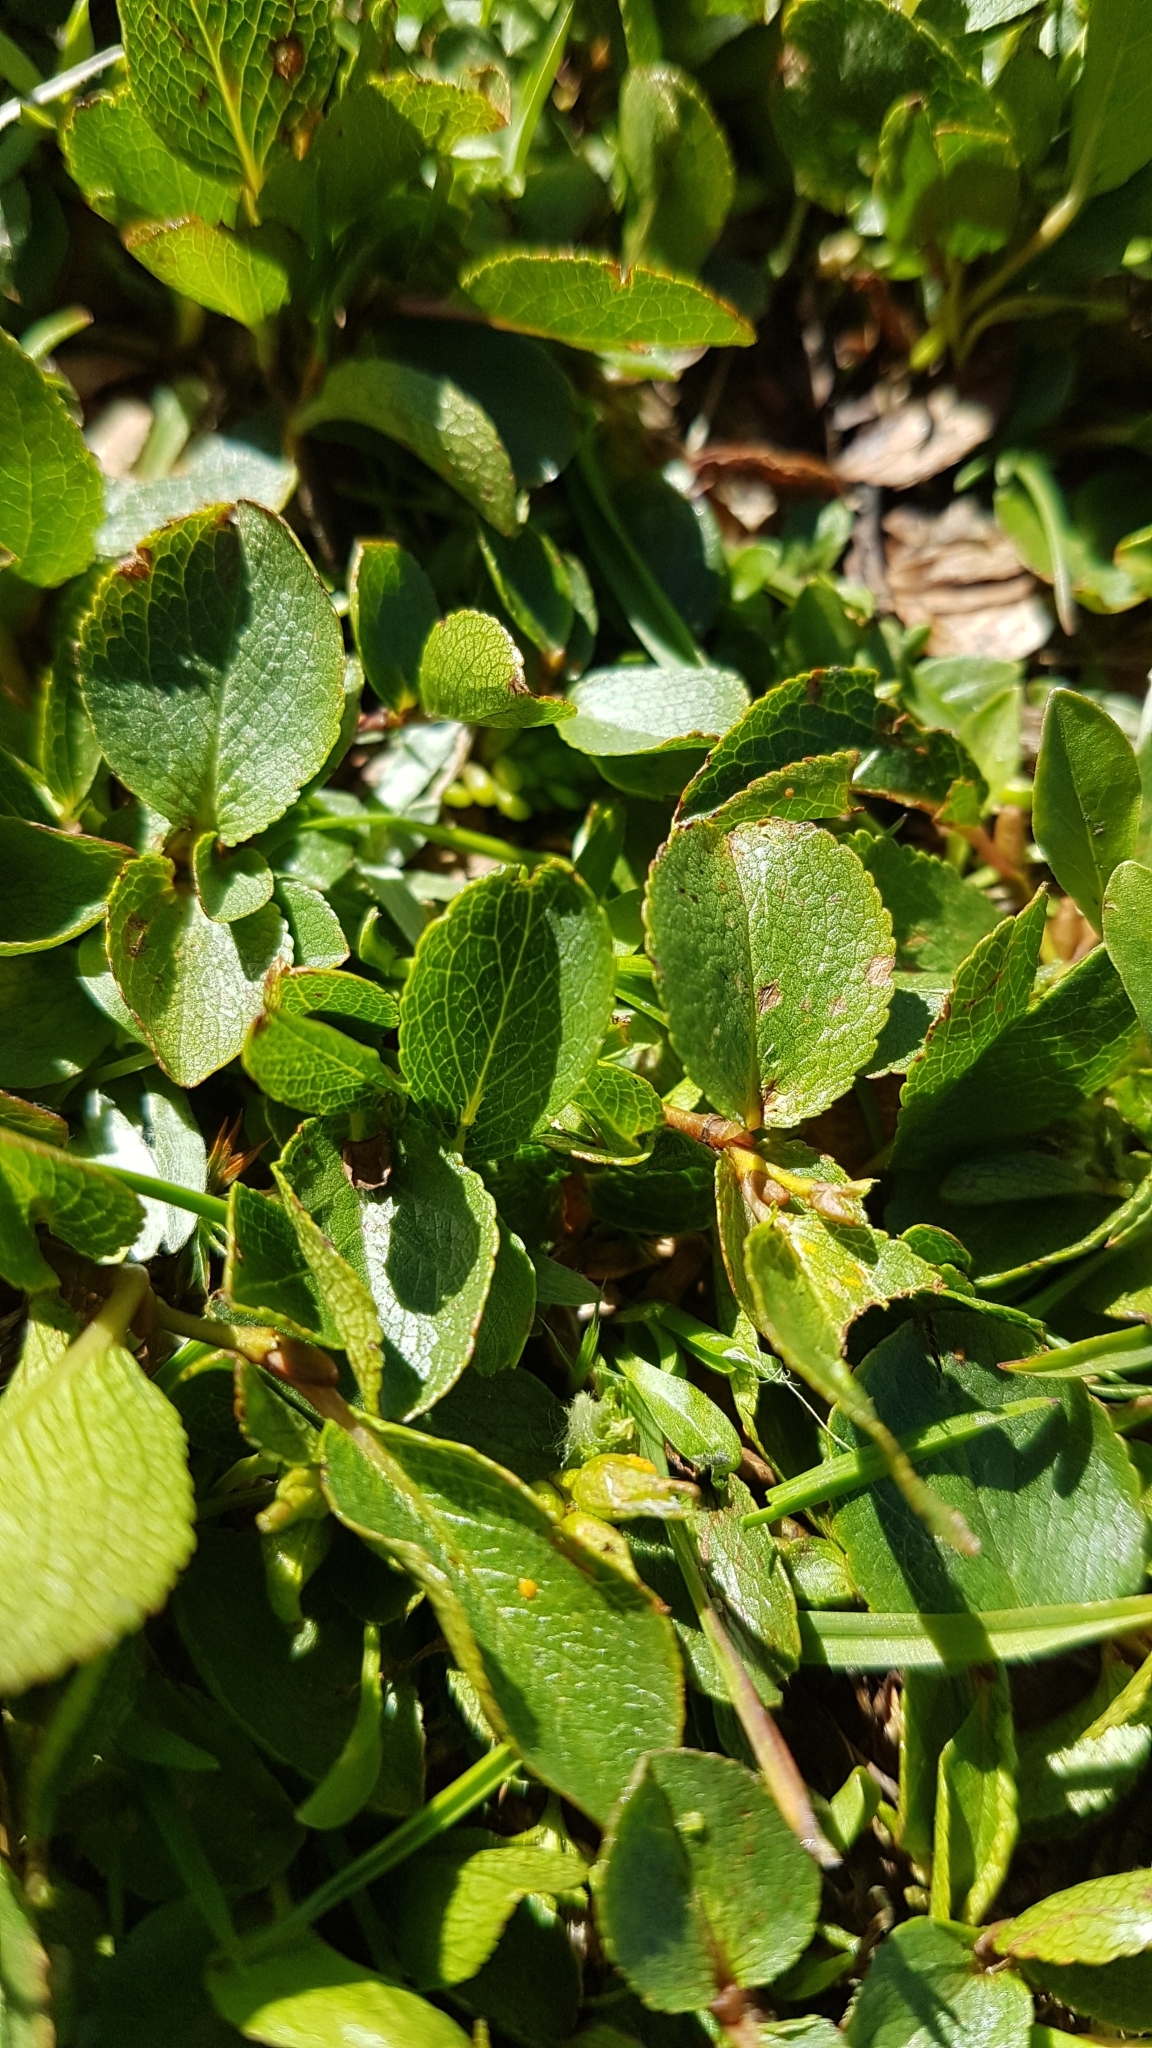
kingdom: Plantae
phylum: Tracheophyta
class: Magnoliopsida
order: Malpighiales
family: Salicaceae
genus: Salix
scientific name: Salix herbacea
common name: Dwarf willow
